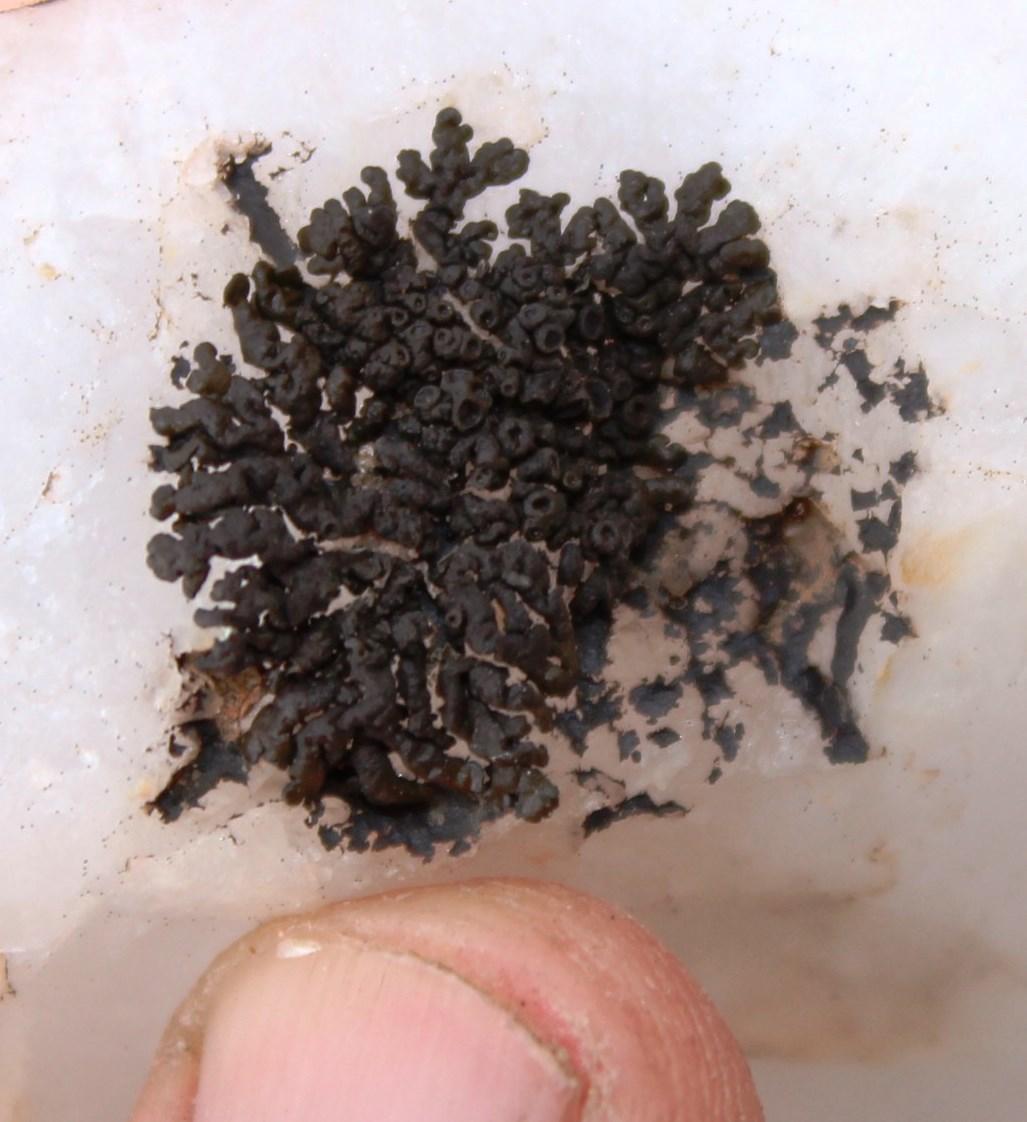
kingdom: Fungi
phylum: Ascomycota
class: Lecanoromycetes
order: Lecanorales
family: Parmeliaceae
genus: Xanthoparmelia
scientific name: Xanthoparmelia incomposita
